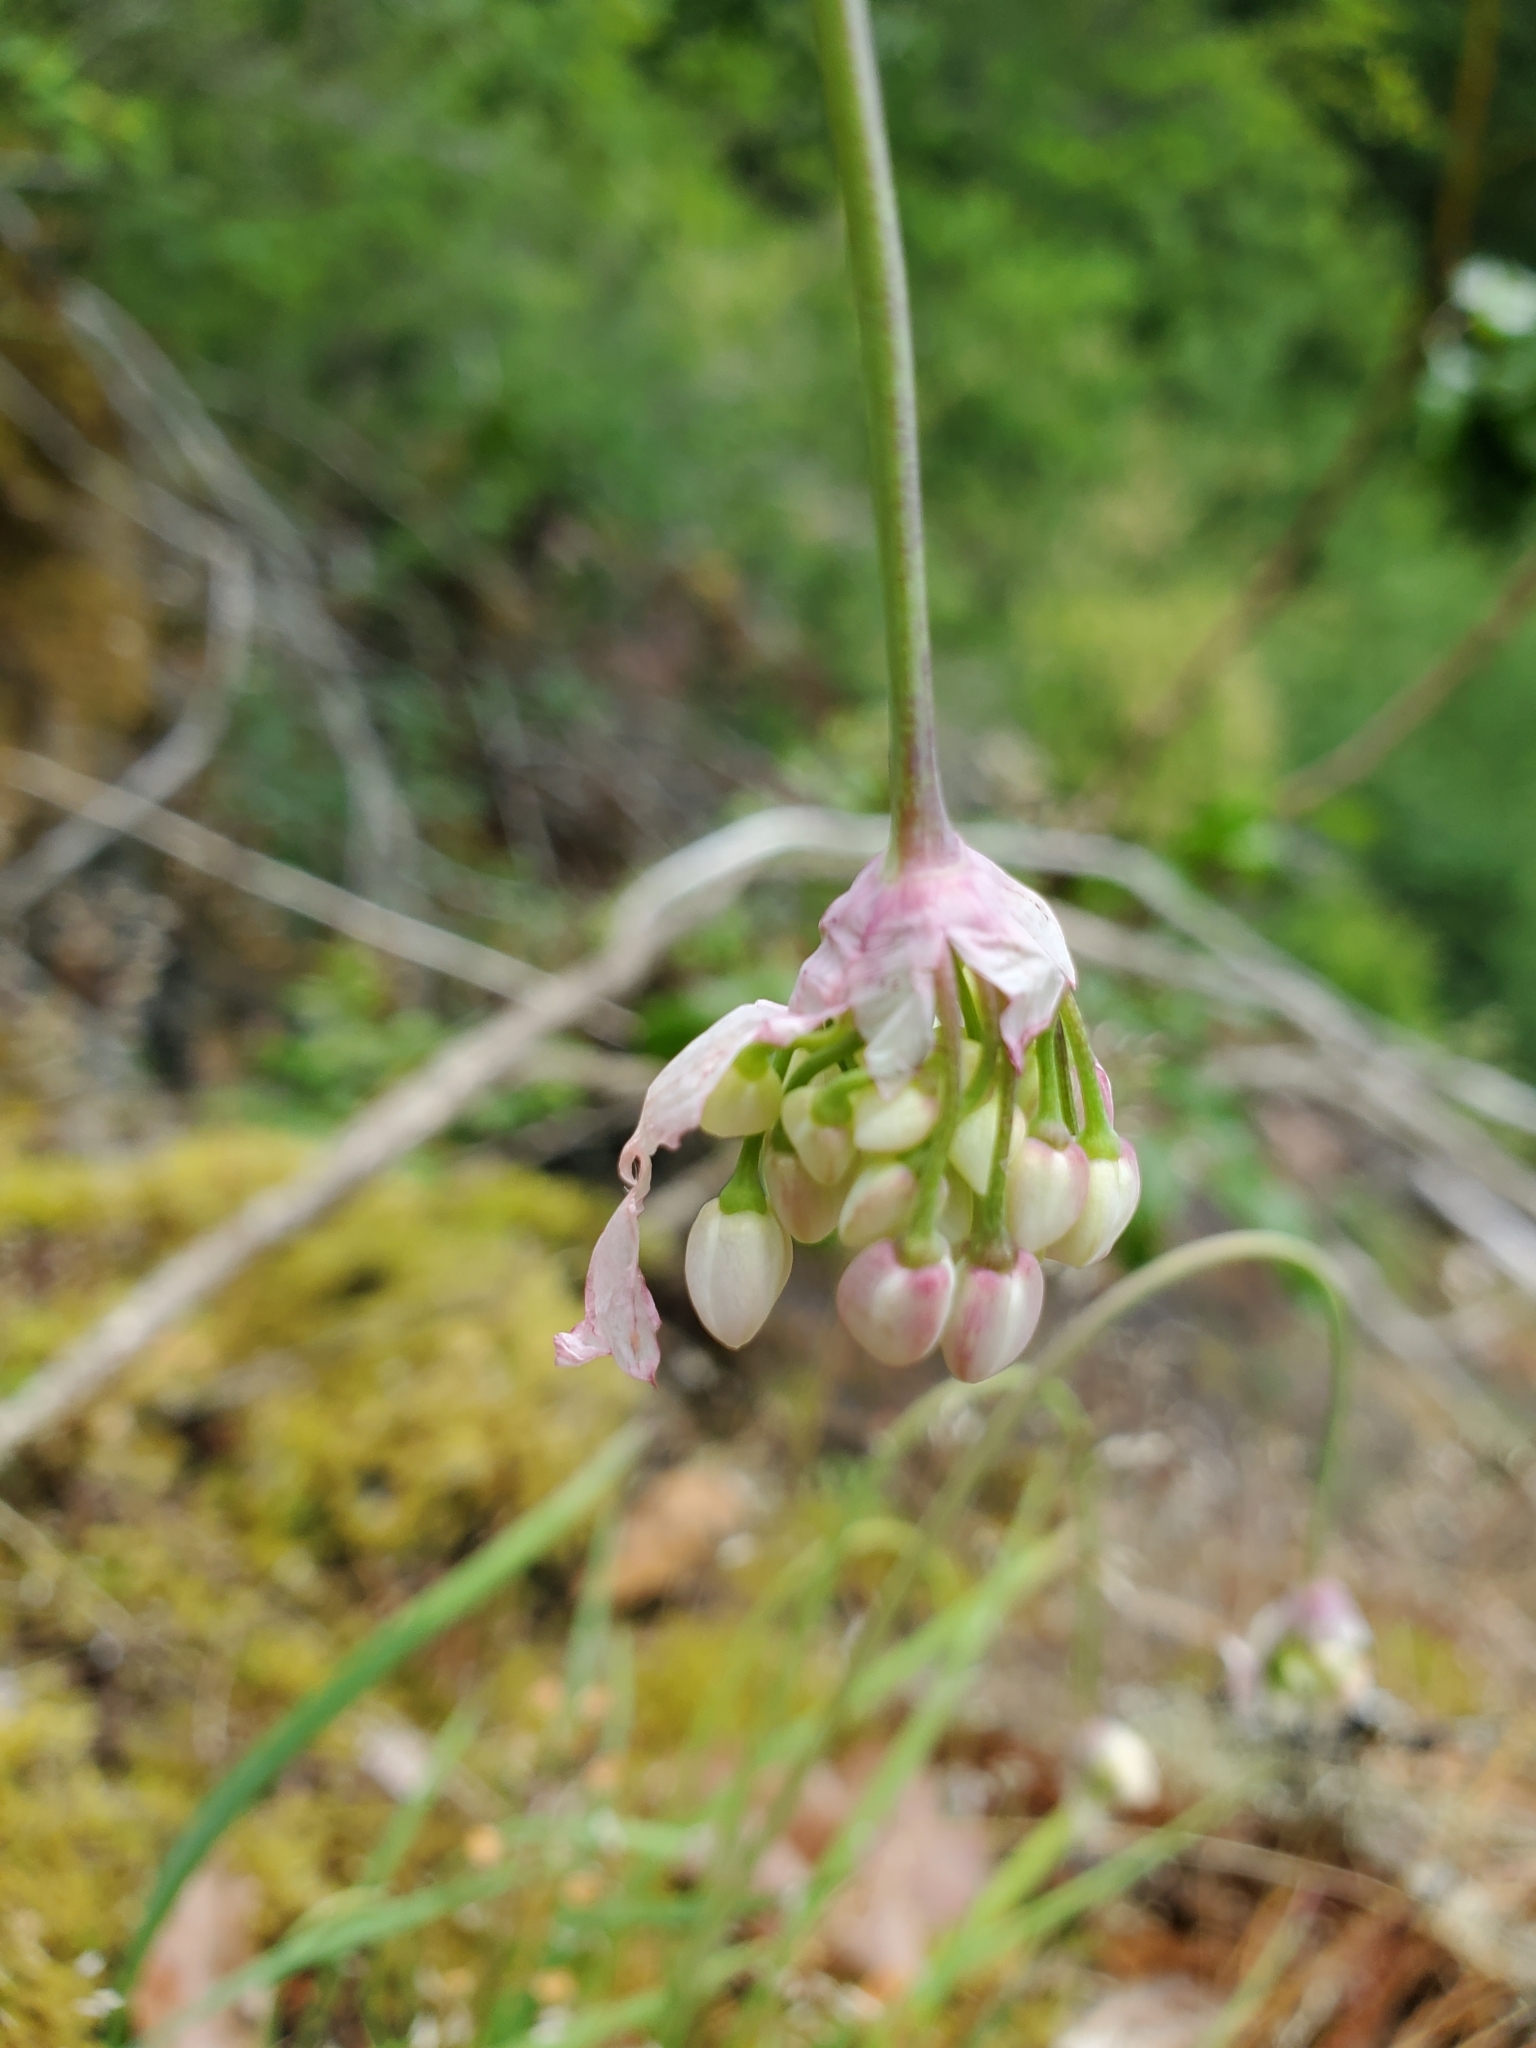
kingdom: Plantae
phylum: Tracheophyta
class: Liliopsida
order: Asparagales
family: Amaryllidaceae
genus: Allium
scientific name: Allium cernuum
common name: Nodding onion
